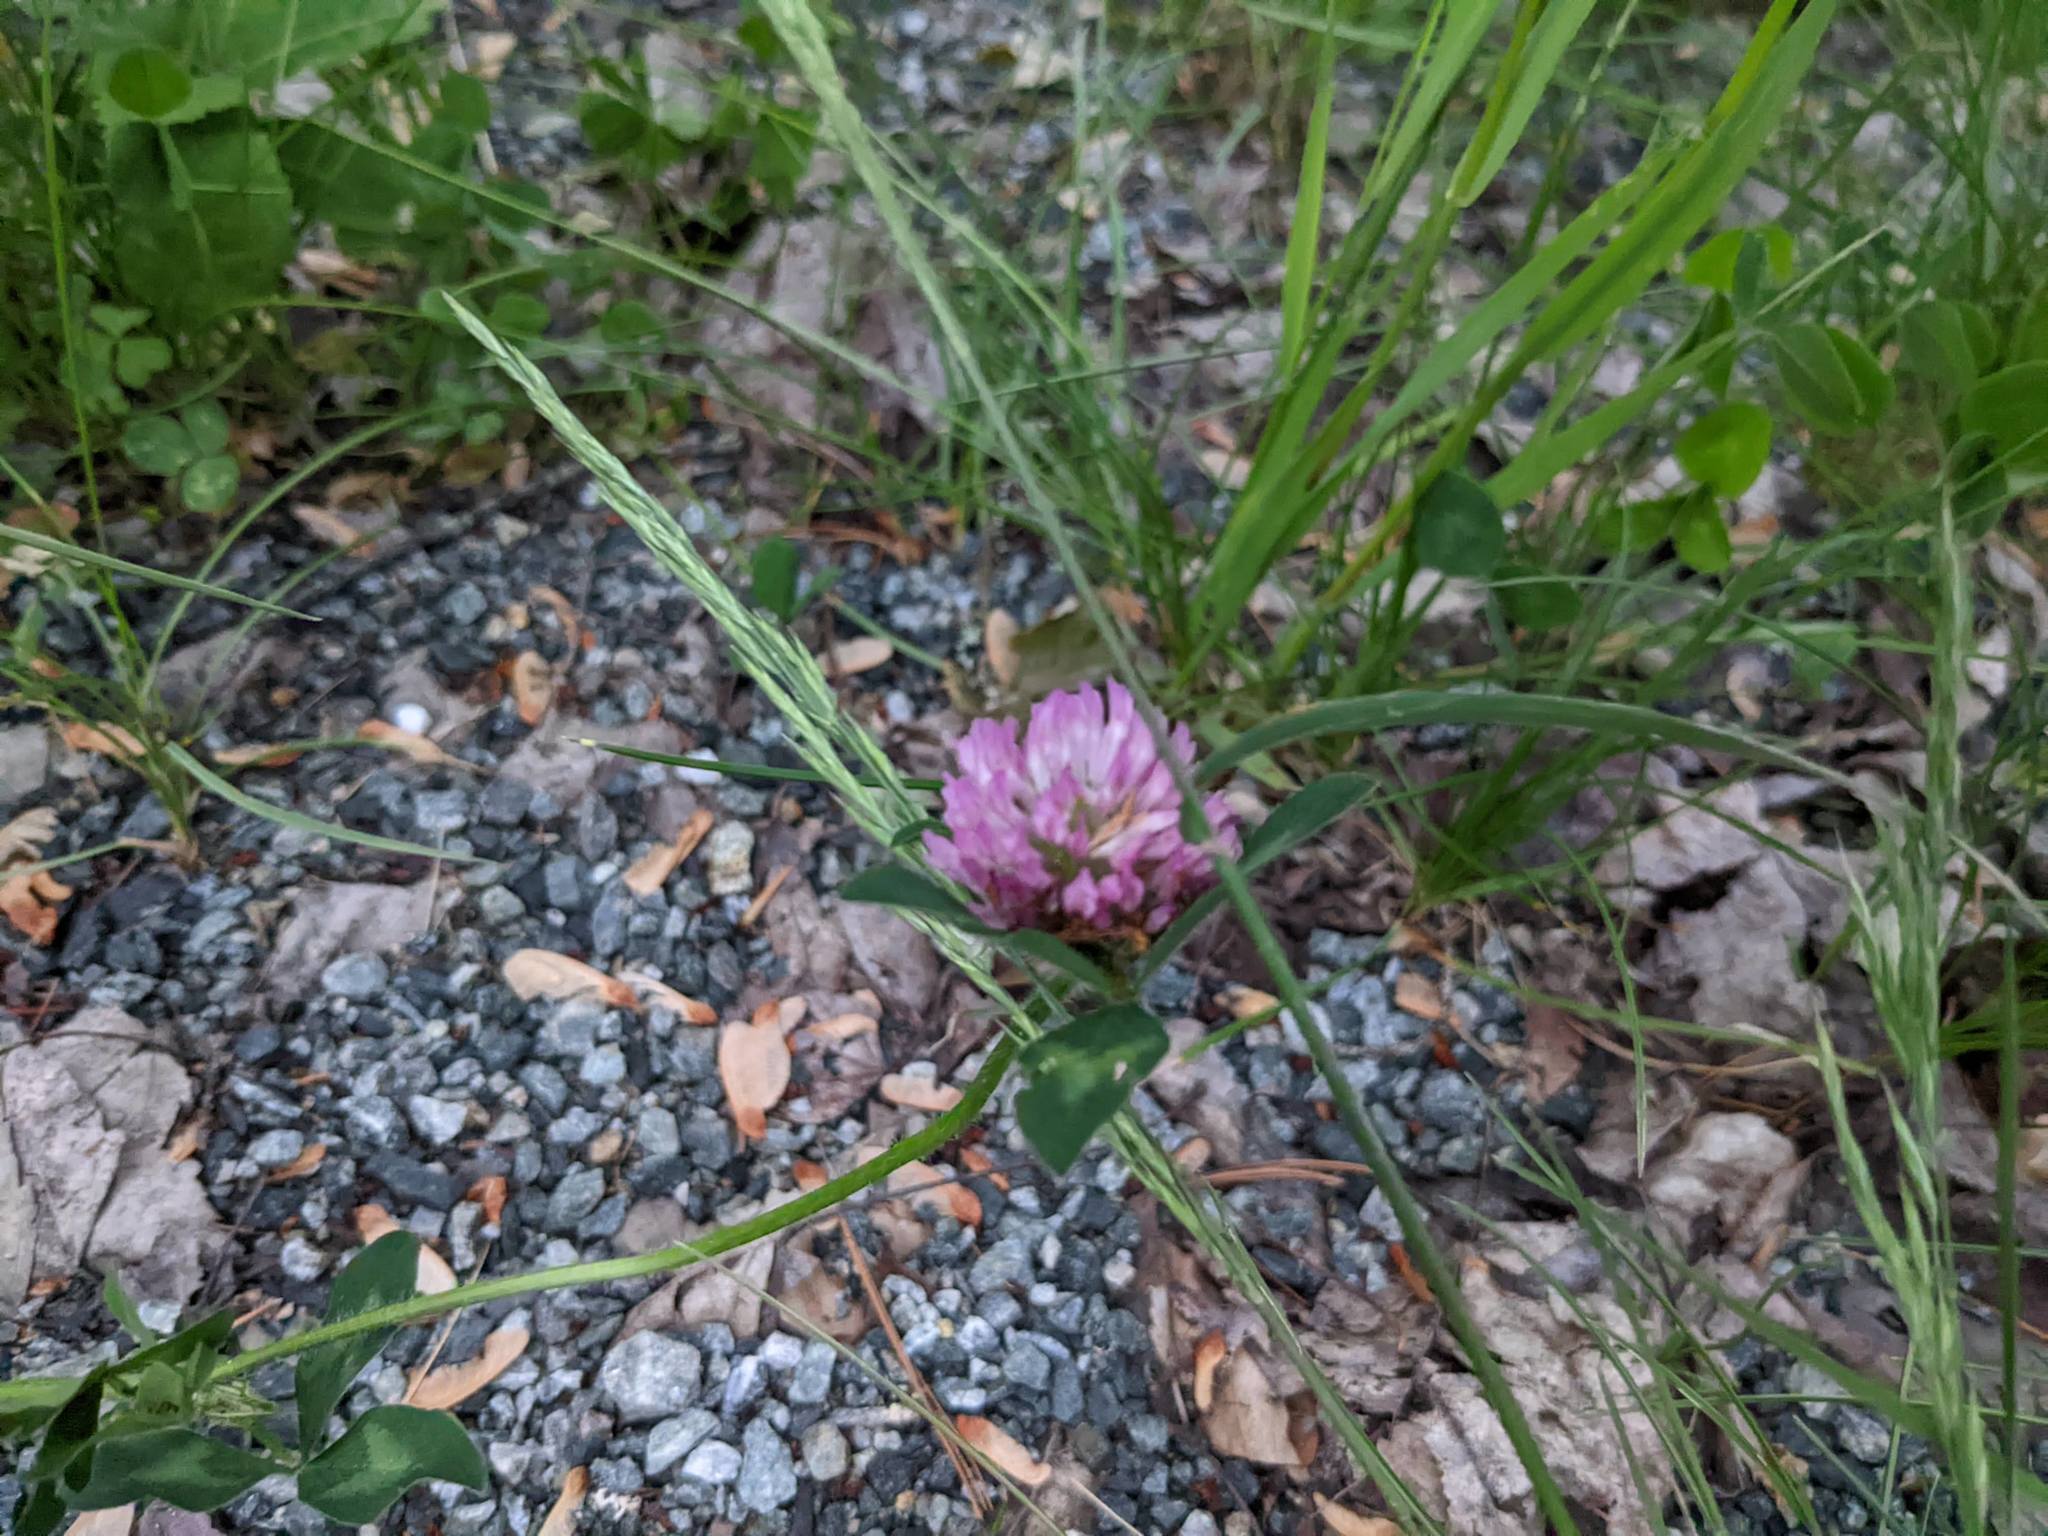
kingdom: Plantae
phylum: Tracheophyta
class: Magnoliopsida
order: Fabales
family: Fabaceae
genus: Trifolium
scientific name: Trifolium pratense
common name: Red clover
